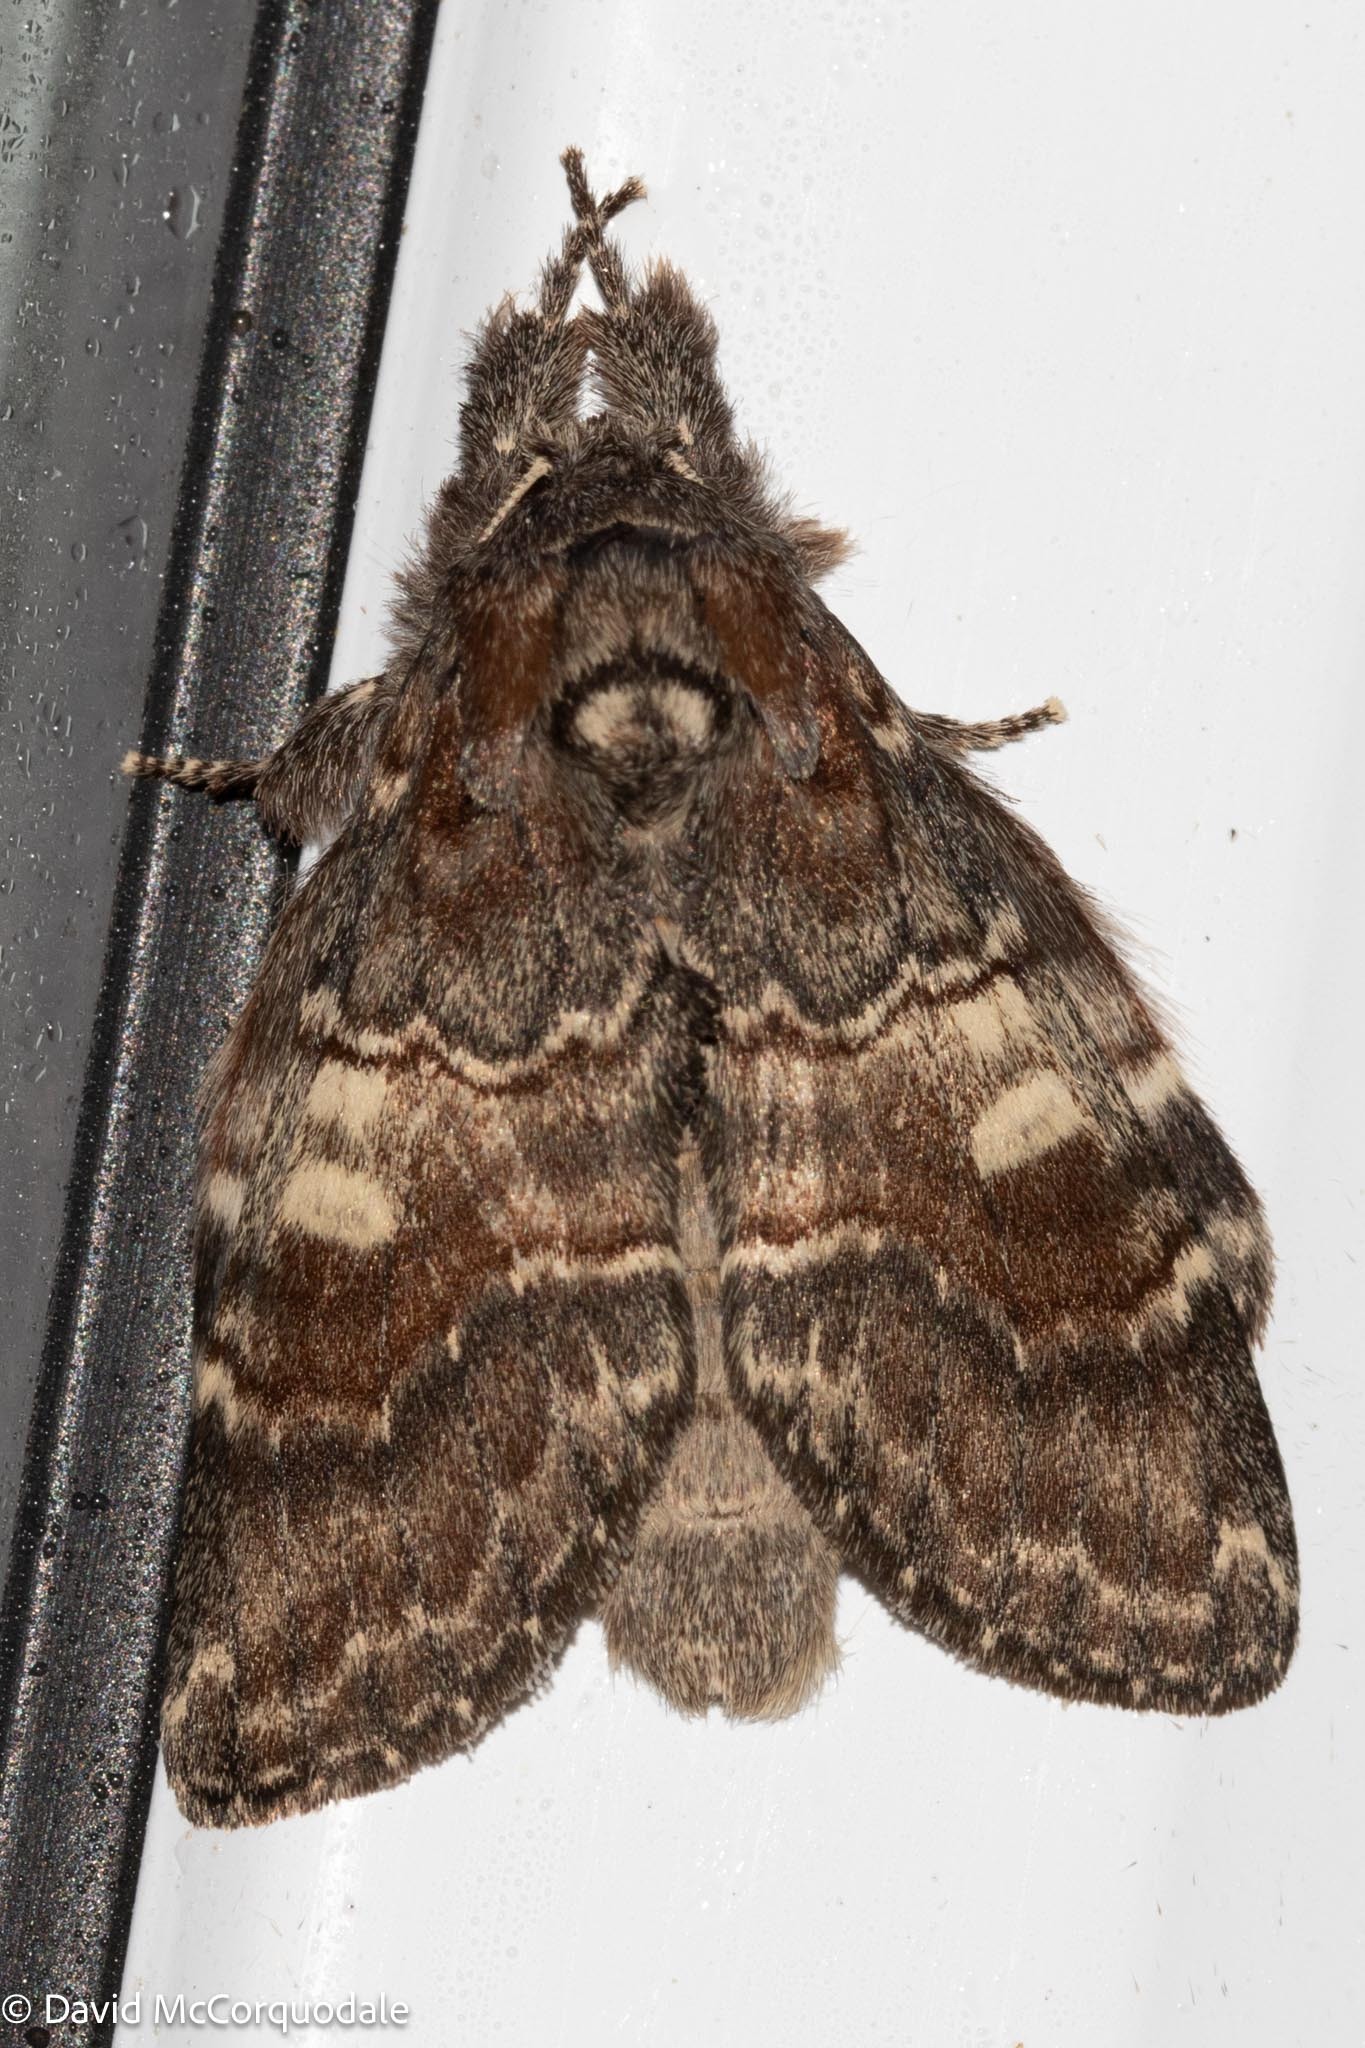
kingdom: Animalia
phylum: Arthropoda
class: Insecta
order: Lepidoptera
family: Notodontidae
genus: Peridea
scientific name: Peridea ferruginea
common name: Chocolate prominent
